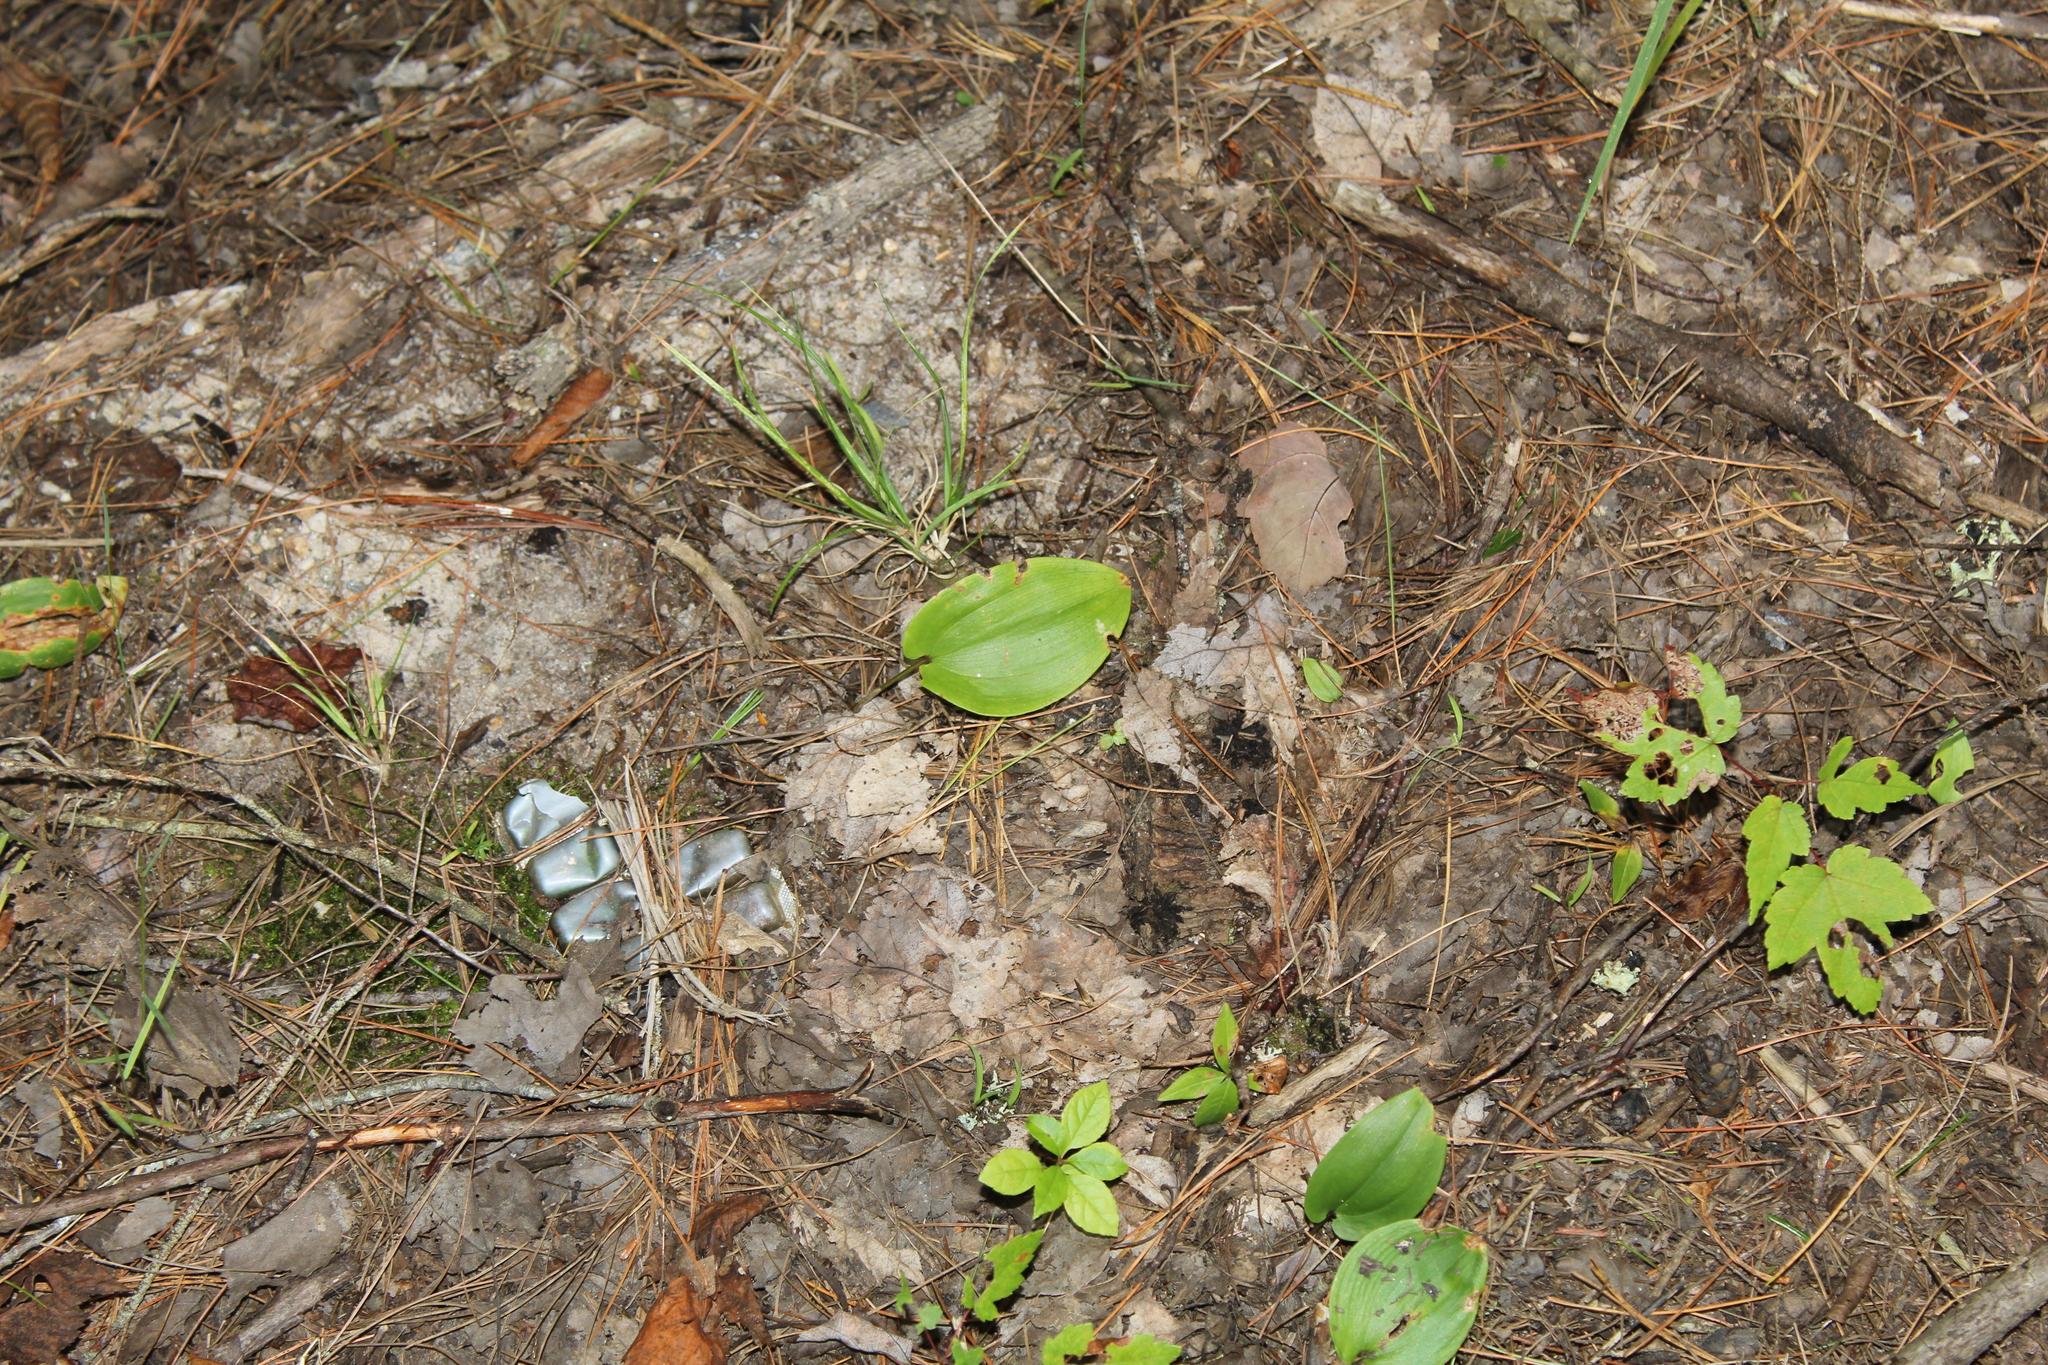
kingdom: Plantae
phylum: Tracheophyta
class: Liliopsida
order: Asparagales
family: Asparagaceae
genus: Maianthemum
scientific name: Maianthemum canadense
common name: False lily-of-the-valley
